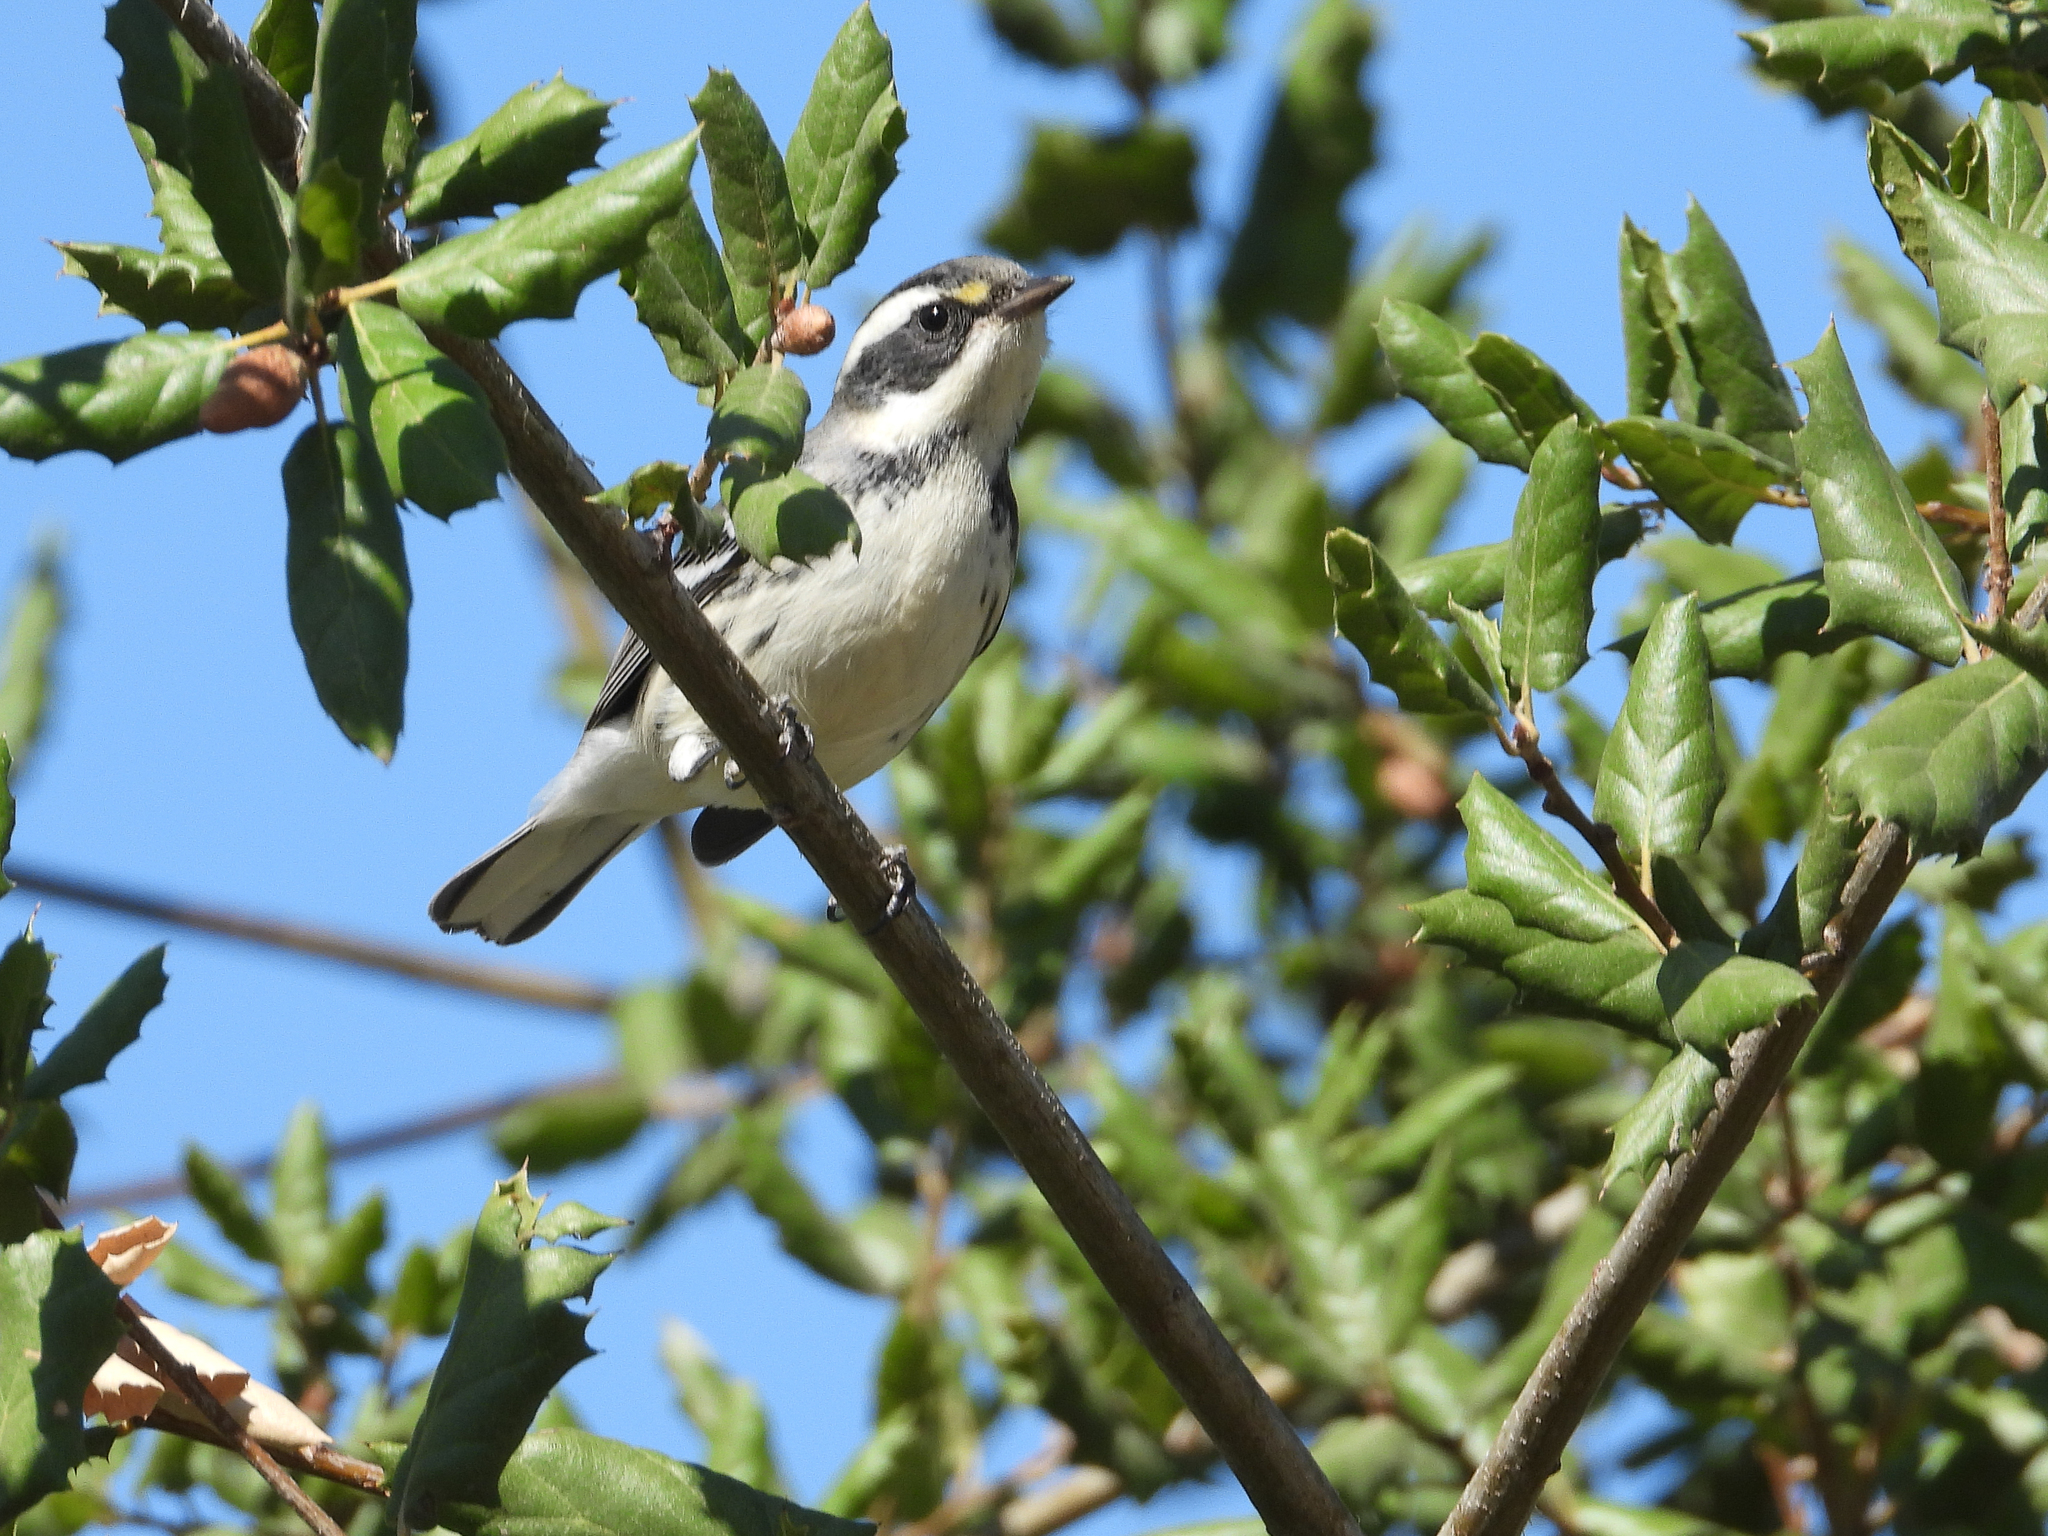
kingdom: Animalia
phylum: Chordata
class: Aves
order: Passeriformes
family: Parulidae
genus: Setophaga
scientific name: Setophaga nigrescens
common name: Black-throated gray warbler
